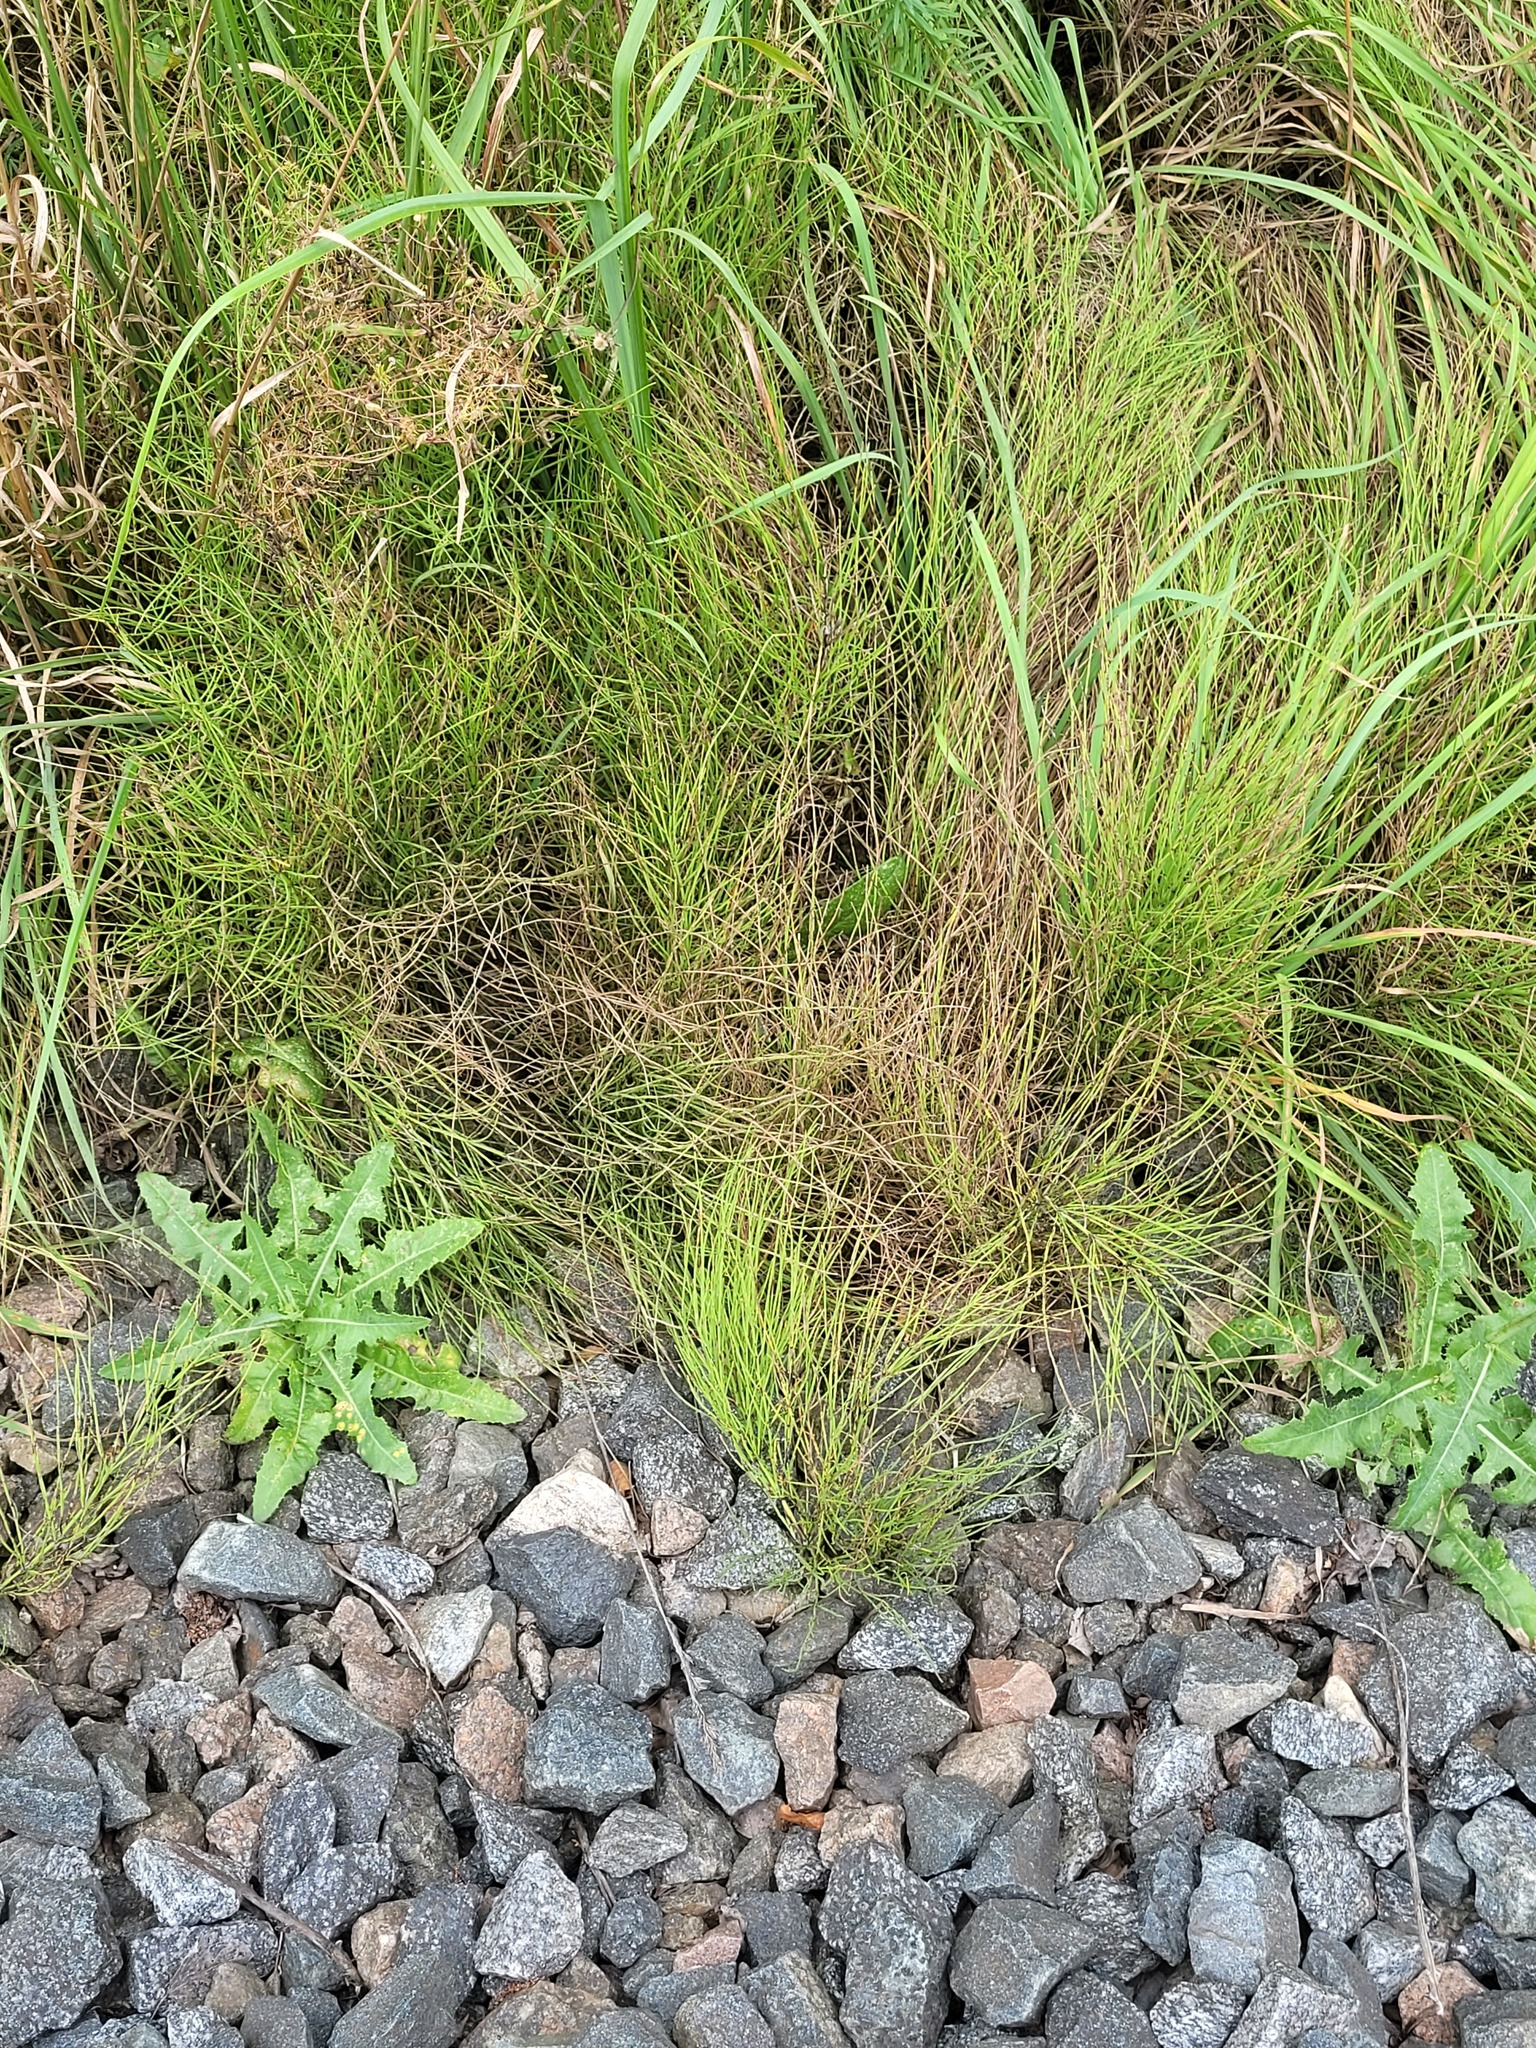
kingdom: Plantae
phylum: Tracheophyta
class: Polypodiopsida
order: Equisetales
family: Equisetaceae
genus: Equisetum
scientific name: Equisetum arvense
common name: Field horsetail
